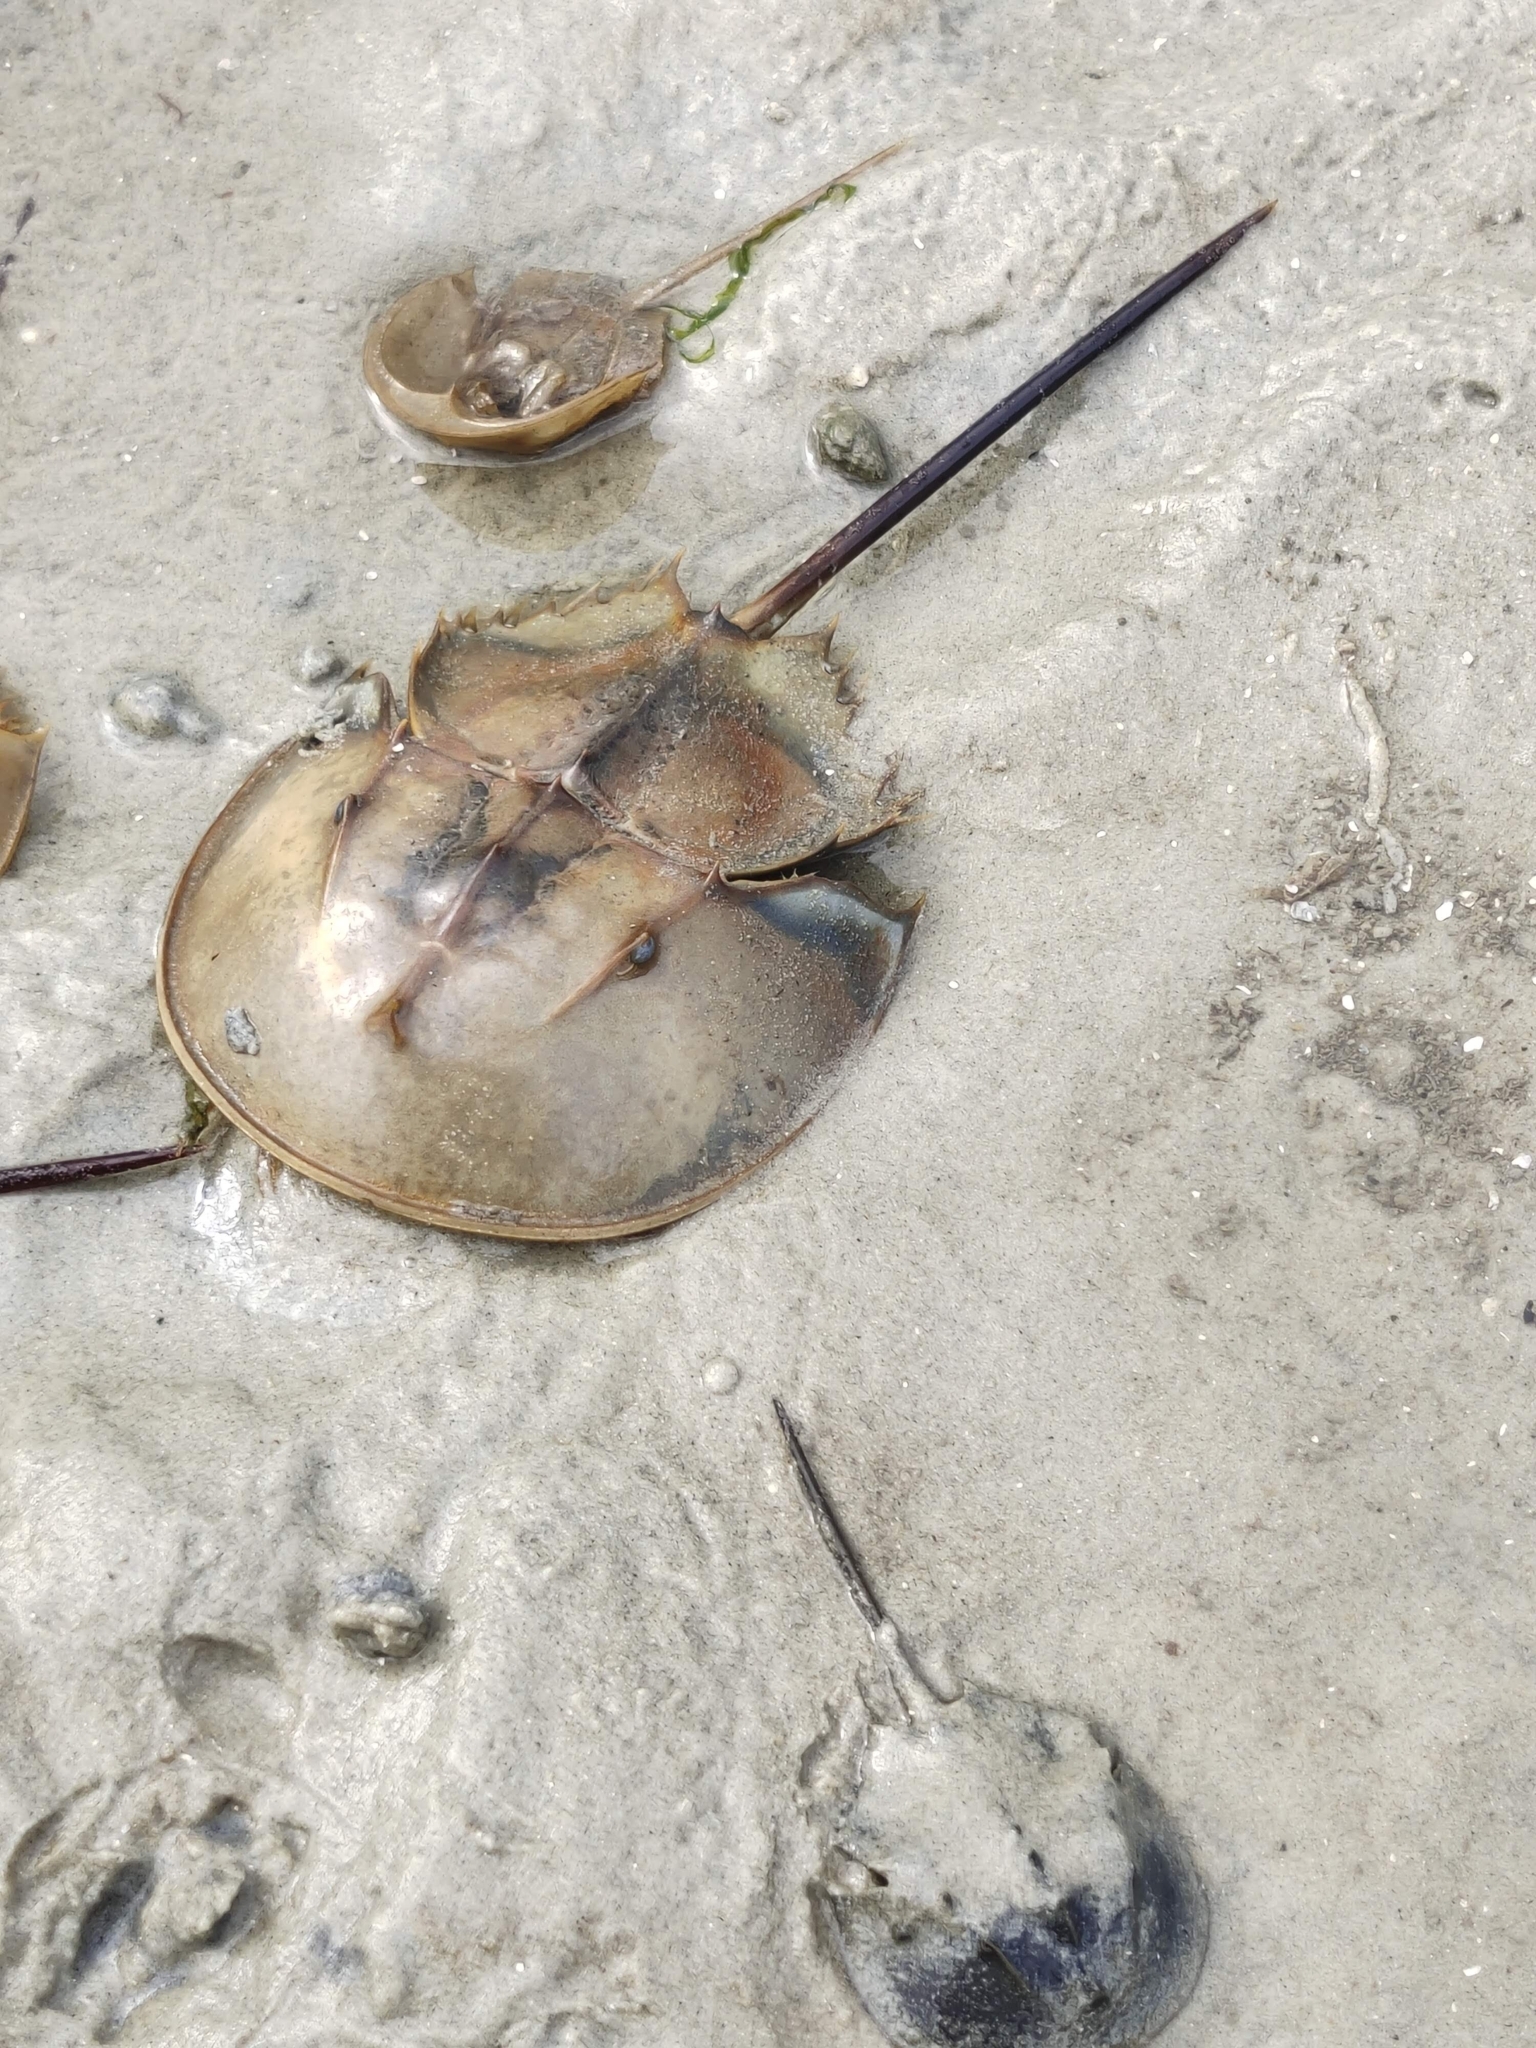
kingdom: Animalia
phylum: Arthropoda
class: Merostomata
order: Xiphosurida
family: Limulidae
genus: Carcinoscorpius
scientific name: Carcinoscorpius rotundicauda
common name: Horseshoe crab
